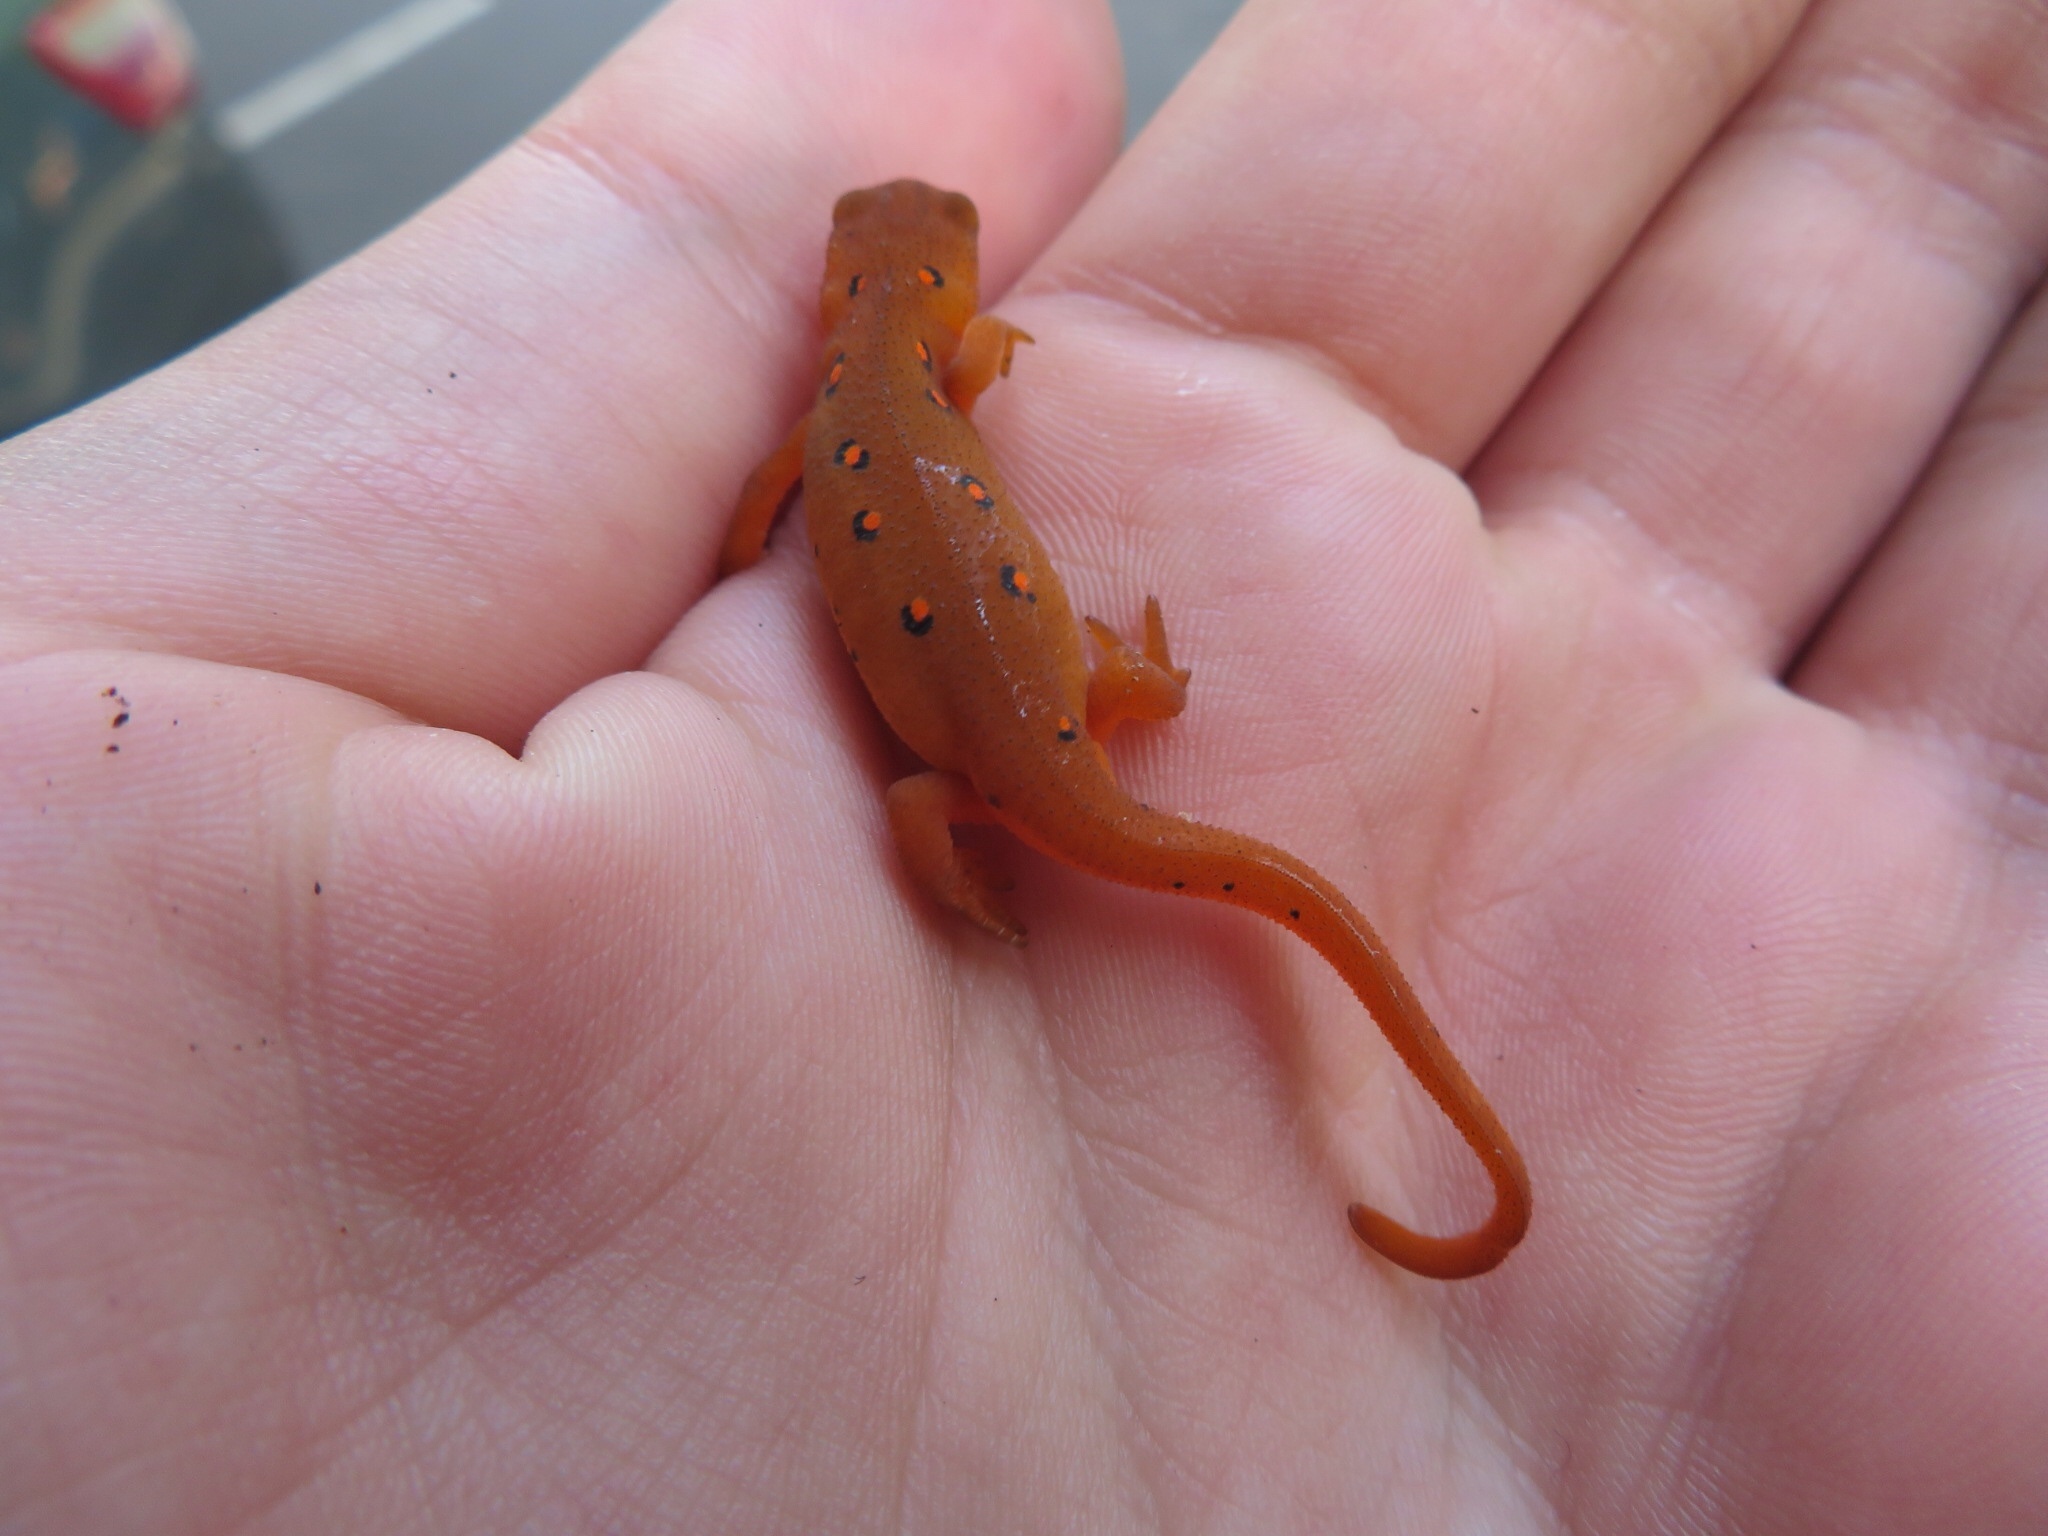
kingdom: Animalia
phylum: Chordata
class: Amphibia
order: Caudata
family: Salamandridae
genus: Notophthalmus
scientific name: Notophthalmus viridescens
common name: Eastern newt
